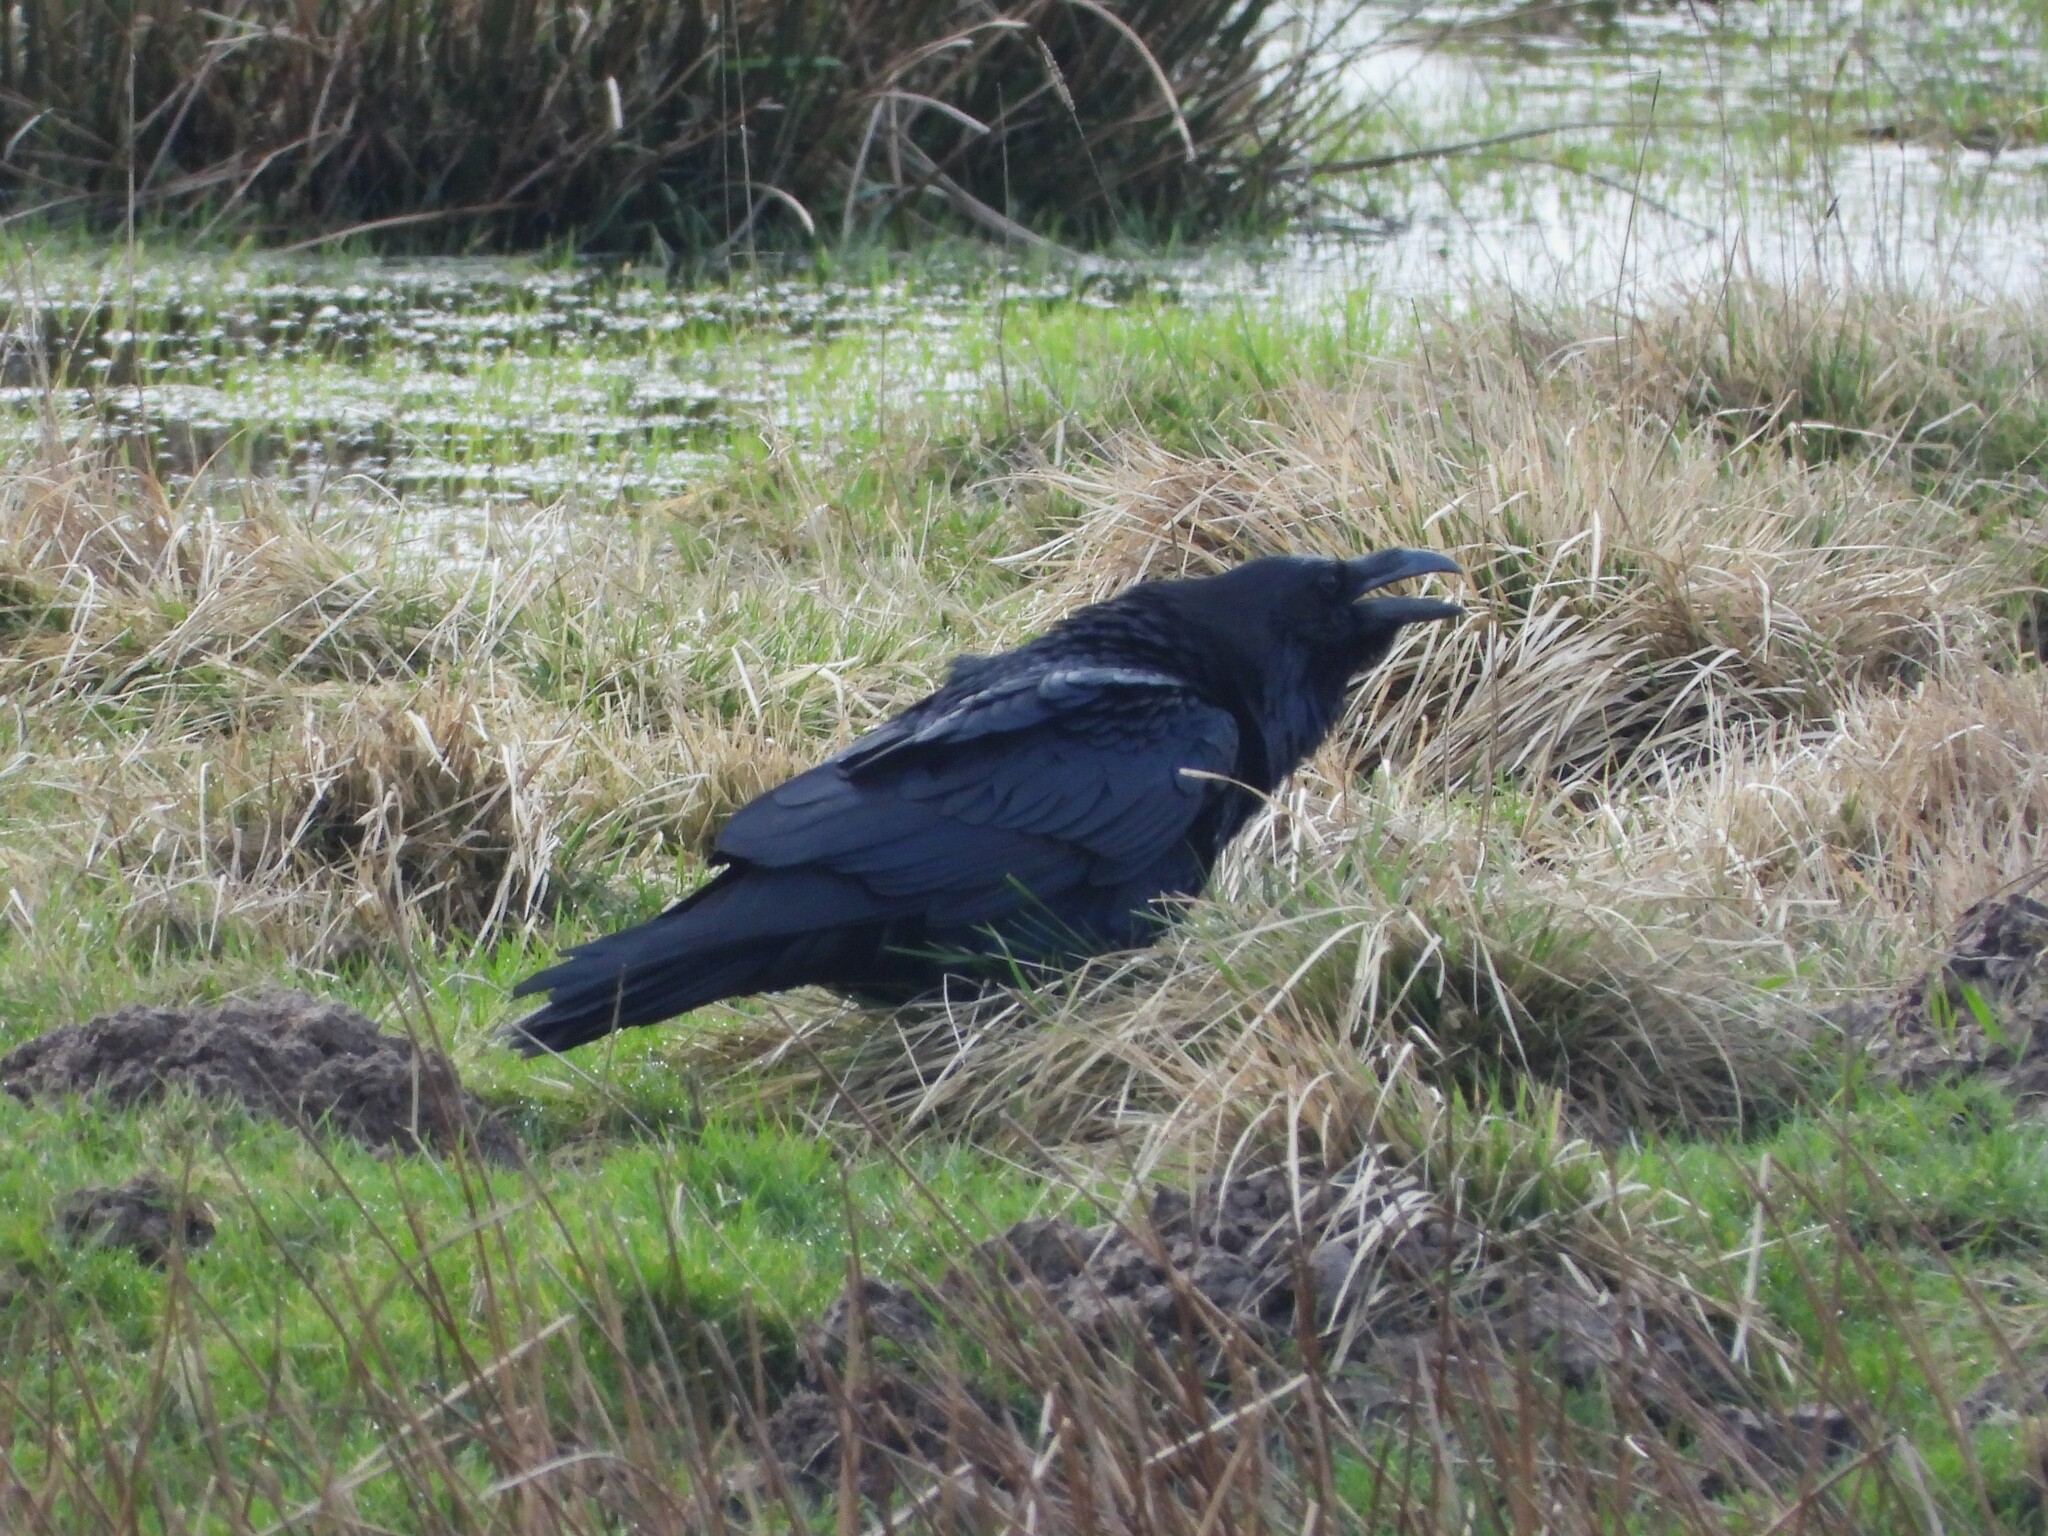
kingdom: Animalia
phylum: Chordata
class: Aves
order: Passeriformes
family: Corvidae
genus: Corvus
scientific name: Corvus corax
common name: Common raven
